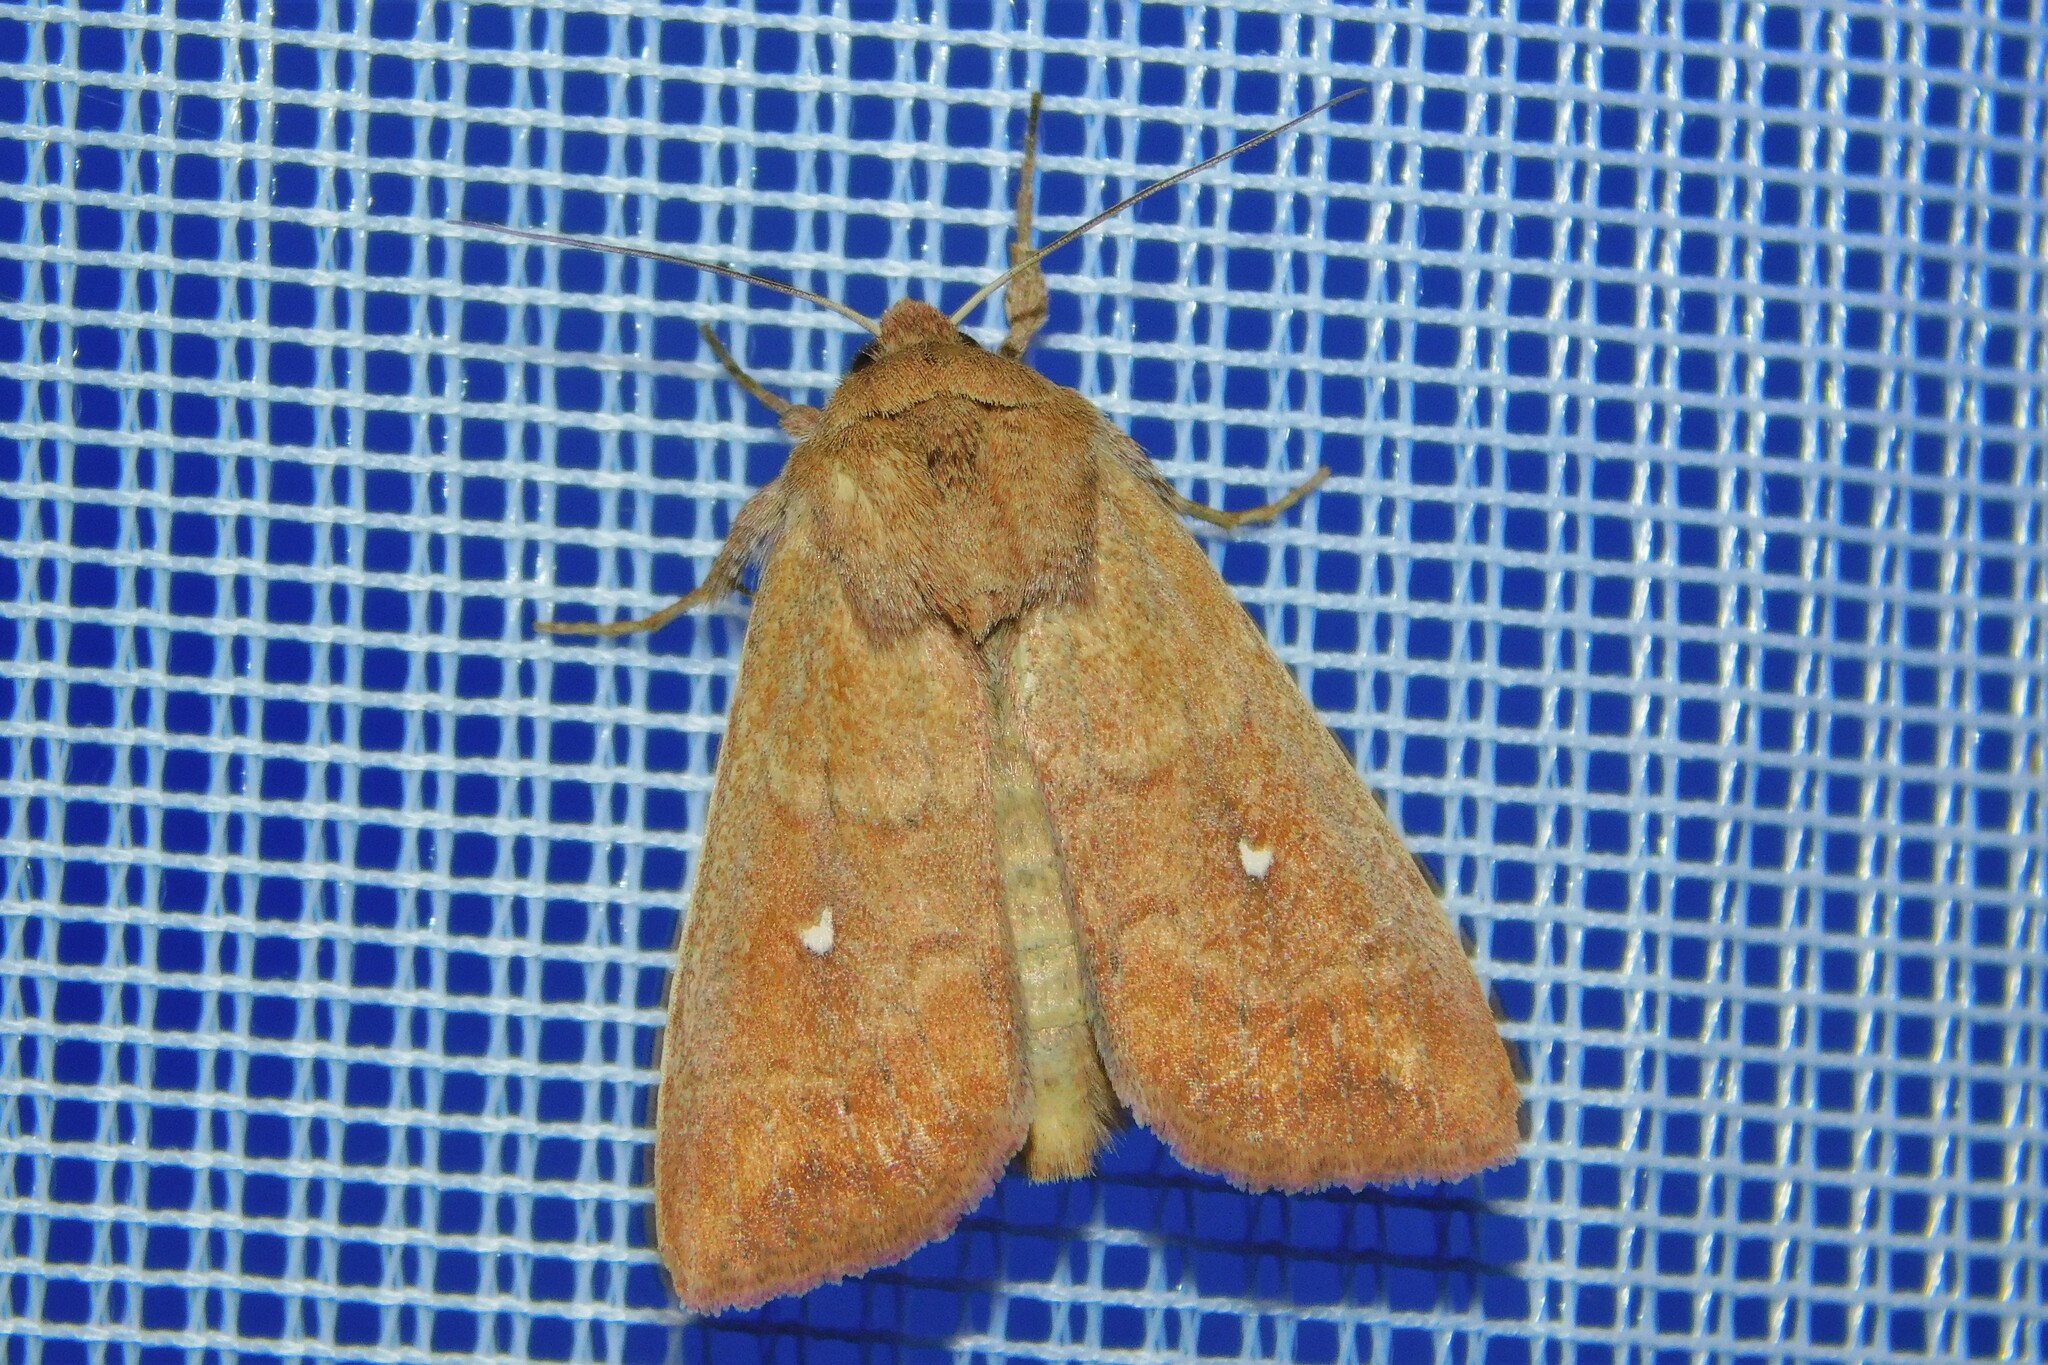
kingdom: Animalia
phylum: Arthropoda
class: Insecta
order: Lepidoptera
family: Noctuidae
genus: Mythimna
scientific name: Mythimna albipuncta
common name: White-point
